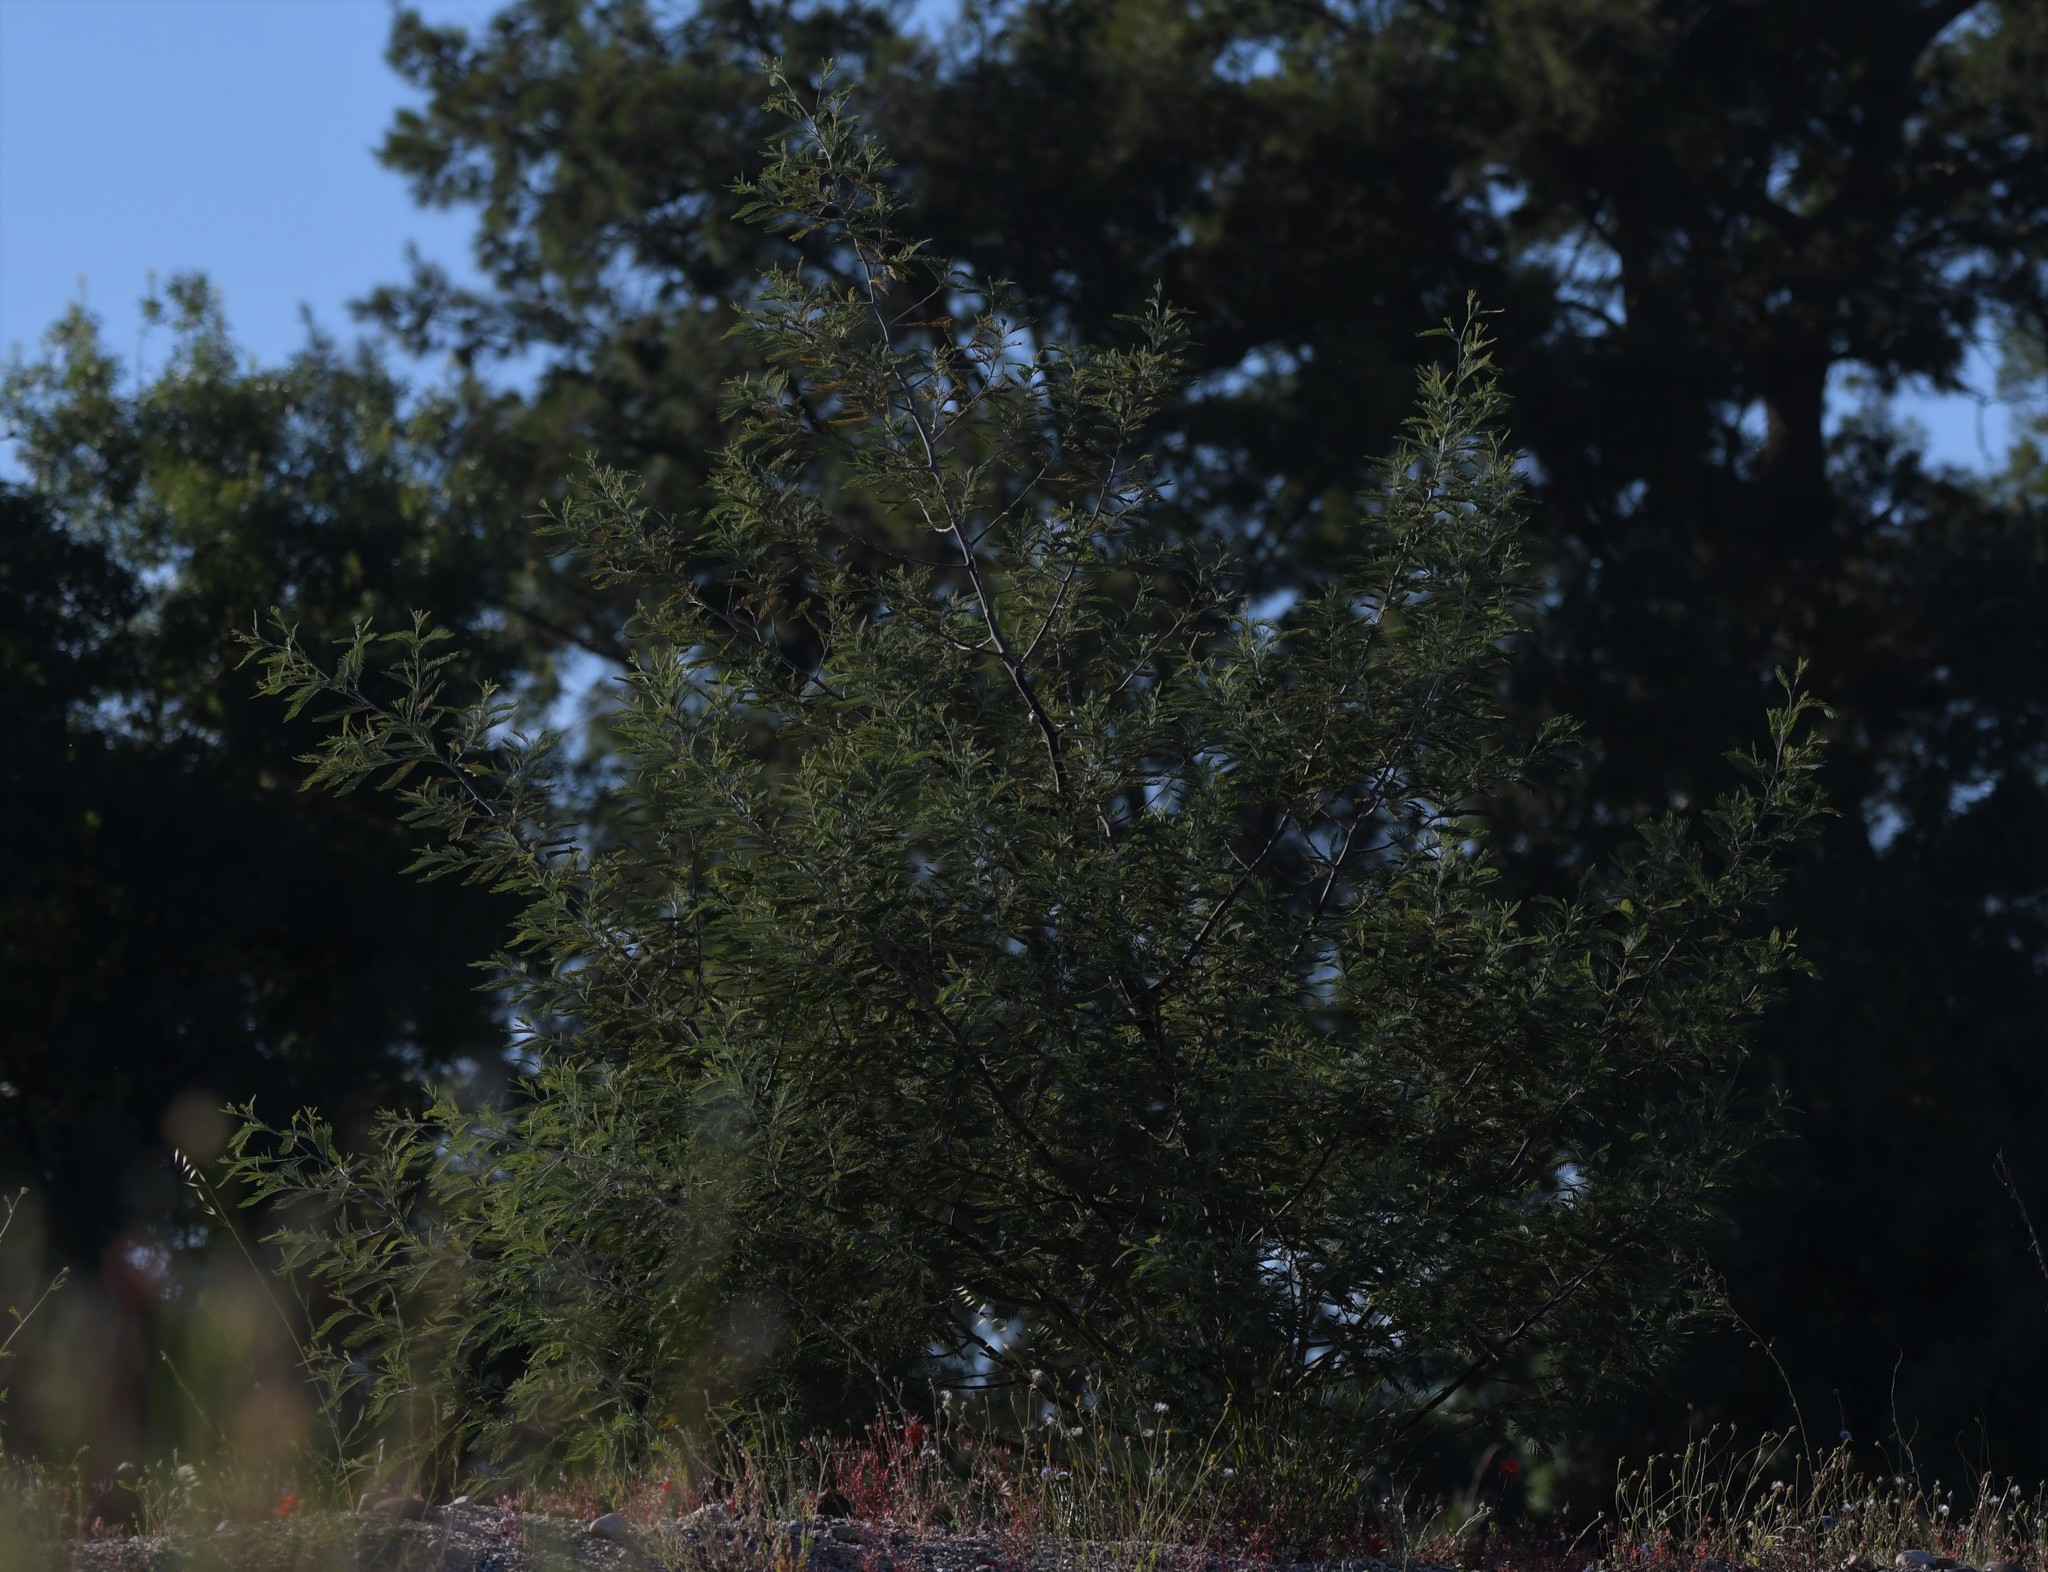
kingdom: Plantae
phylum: Tracheophyta
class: Magnoliopsida
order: Fabales
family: Fabaceae
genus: Acacia
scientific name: Acacia dealbata
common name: Silver wattle
